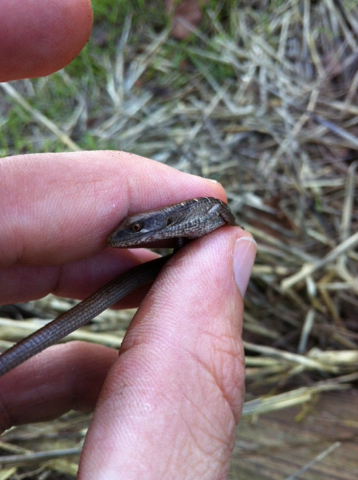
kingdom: Animalia
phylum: Chordata
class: Squamata
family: Anguidae
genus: Elgaria
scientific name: Elgaria multicarinata
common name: Southern alligator lizard
